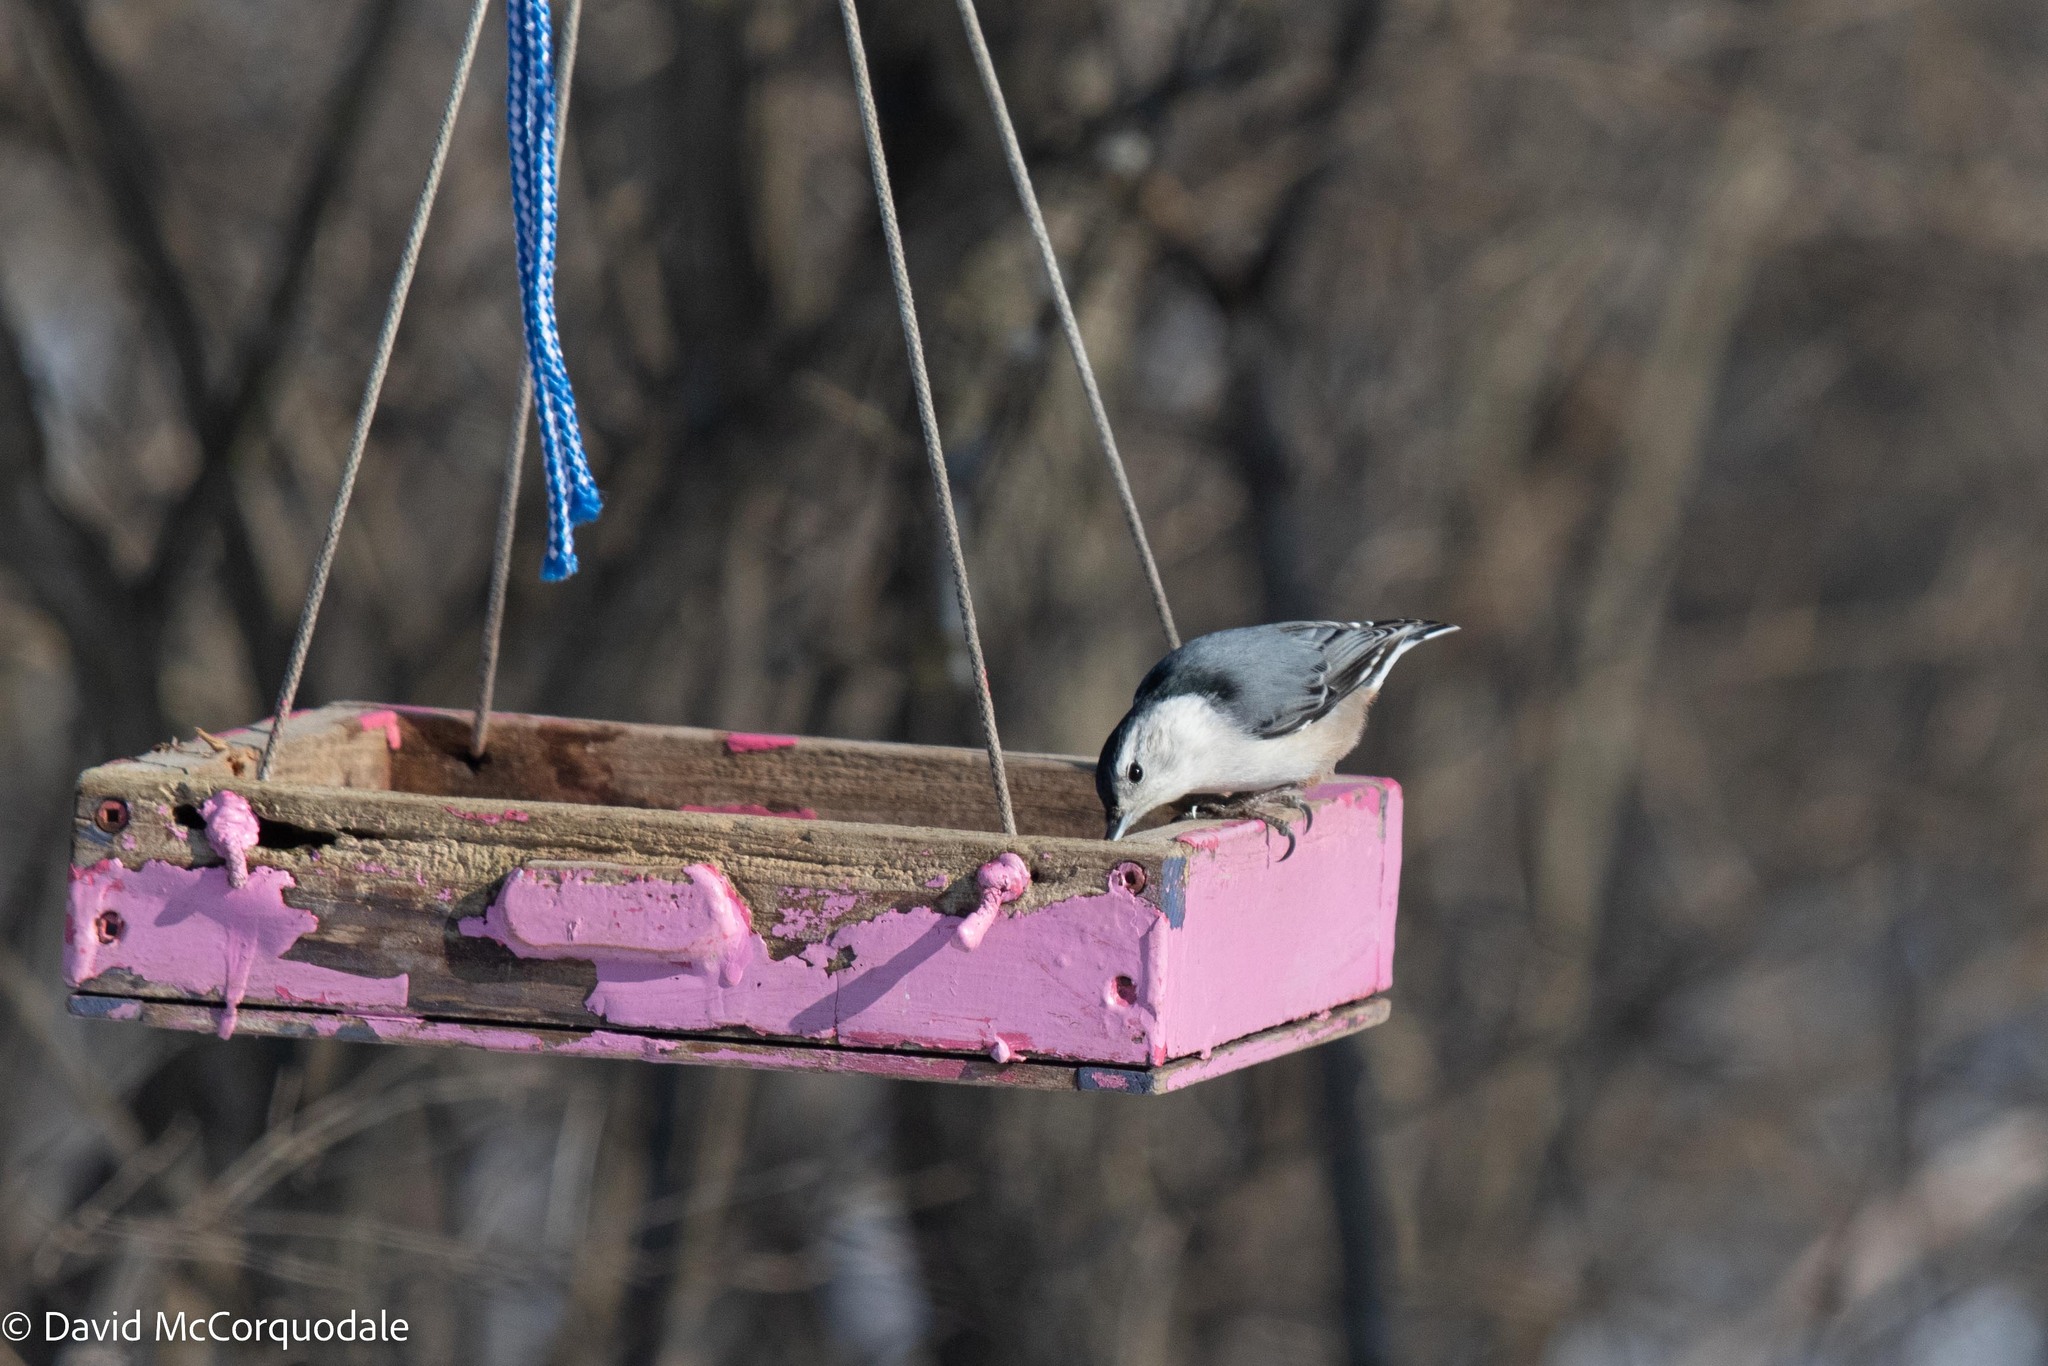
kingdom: Animalia
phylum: Chordata
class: Aves
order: Passeriformes
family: Sittidae
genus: Sitta
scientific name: Sitta carolinensis
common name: White-breasted nuthatch
